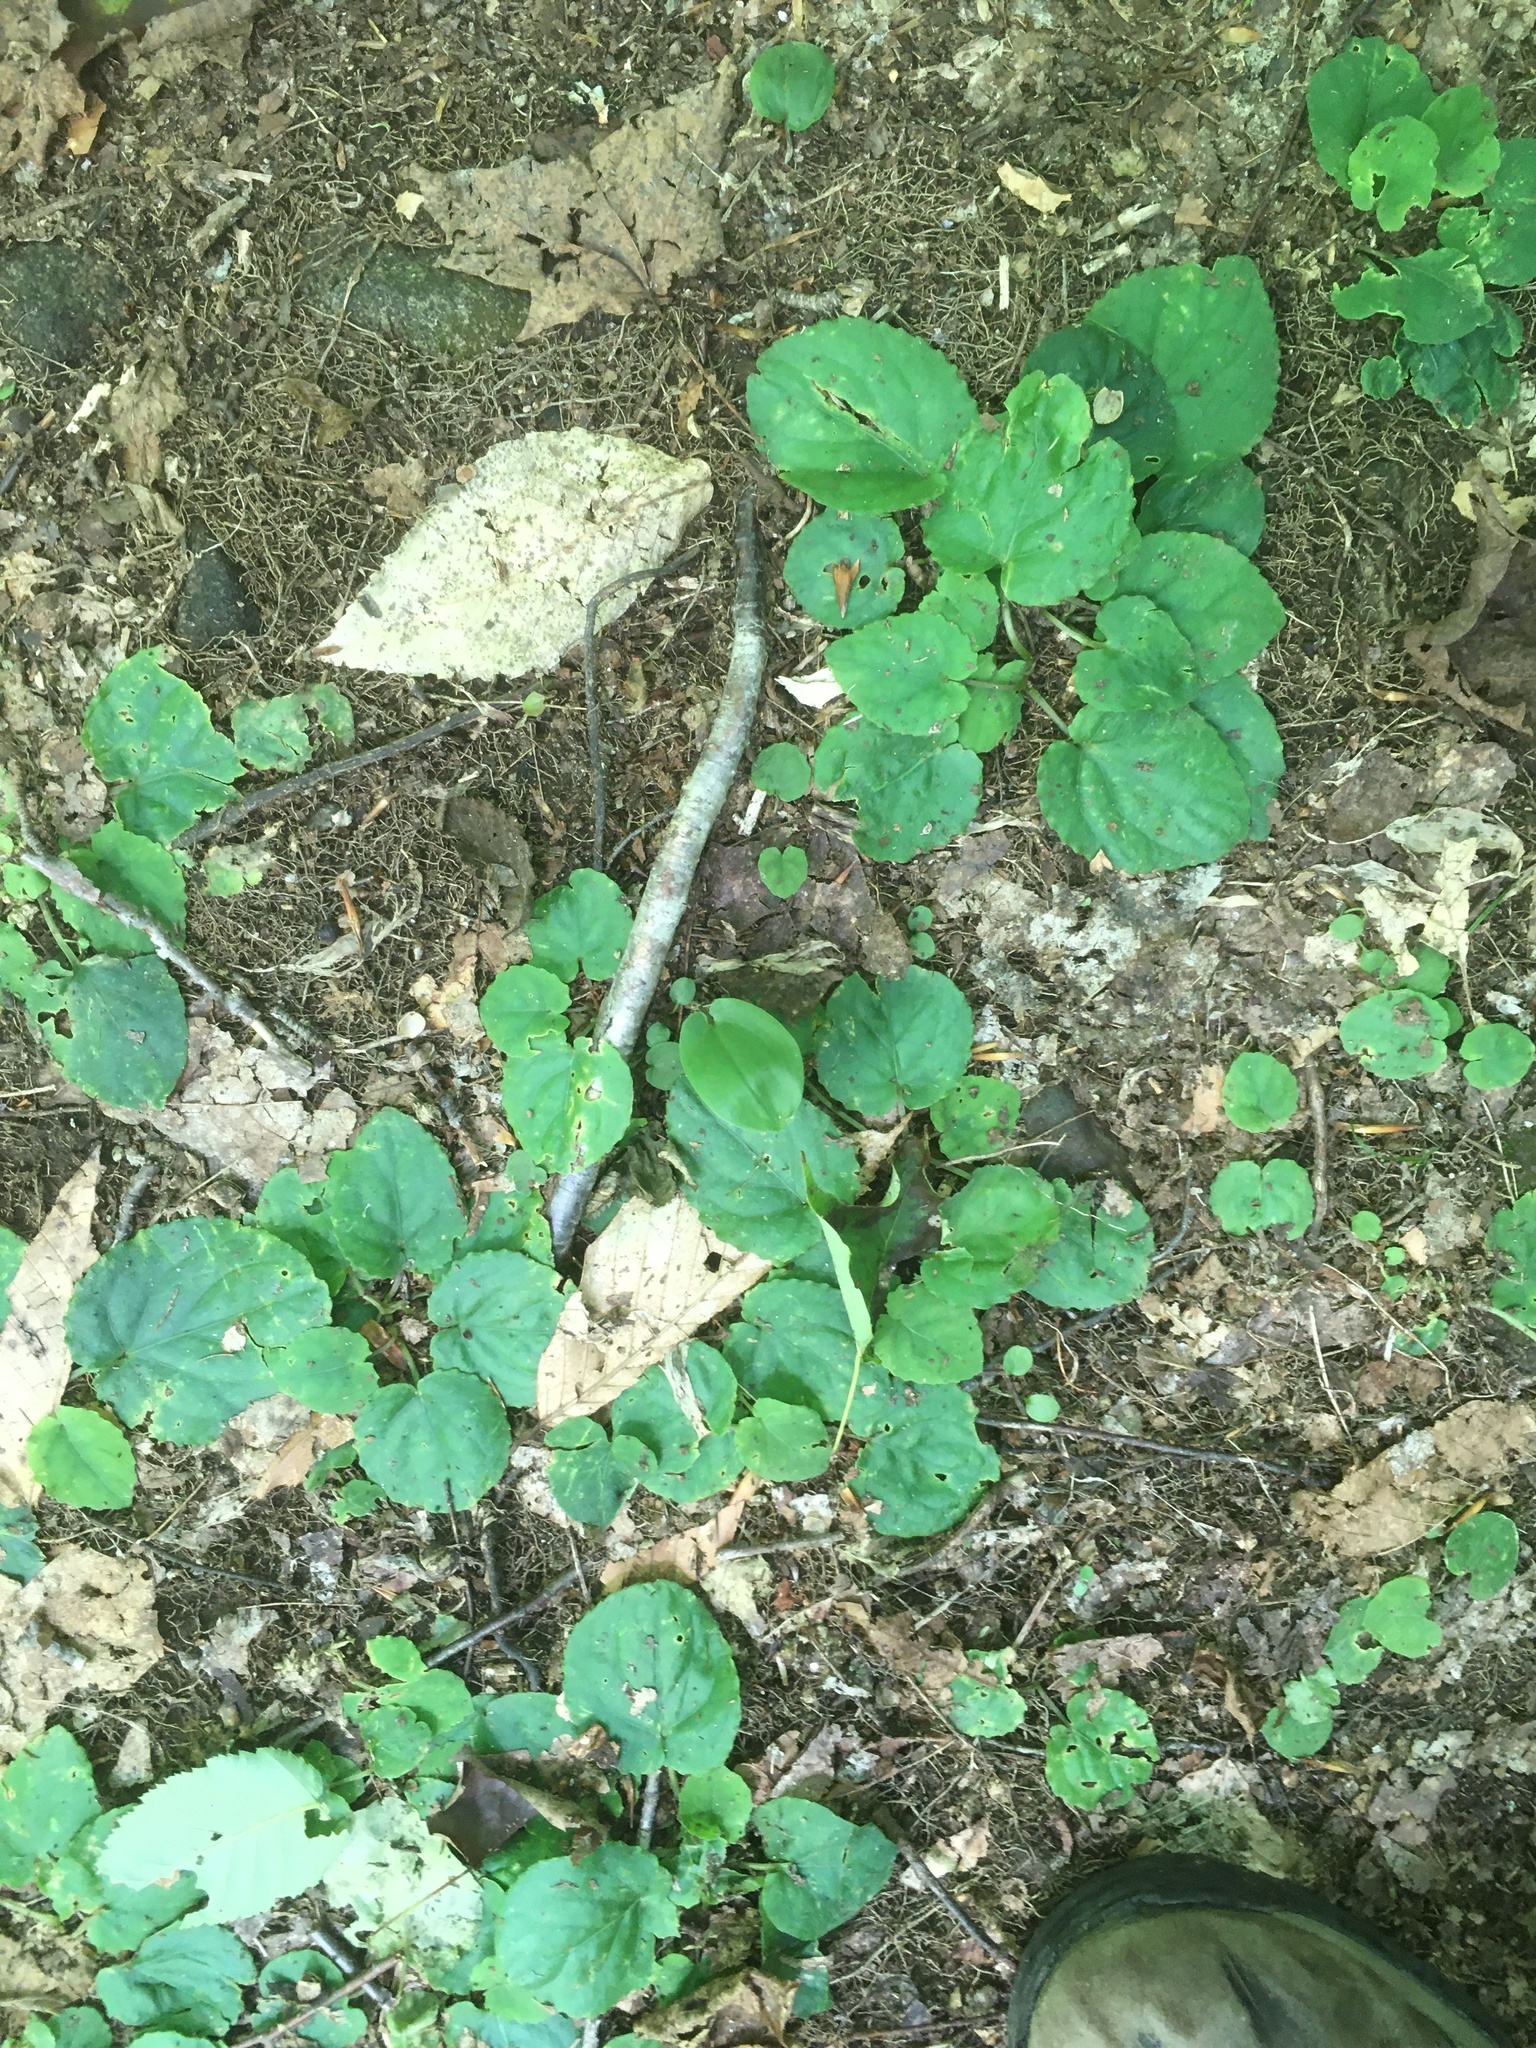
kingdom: Plantae
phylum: Tracheophyta
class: Magnoliopsida
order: Malpighiales
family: Violaceae
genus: Viola
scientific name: Viola rotundifolia
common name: Early yellow violet
